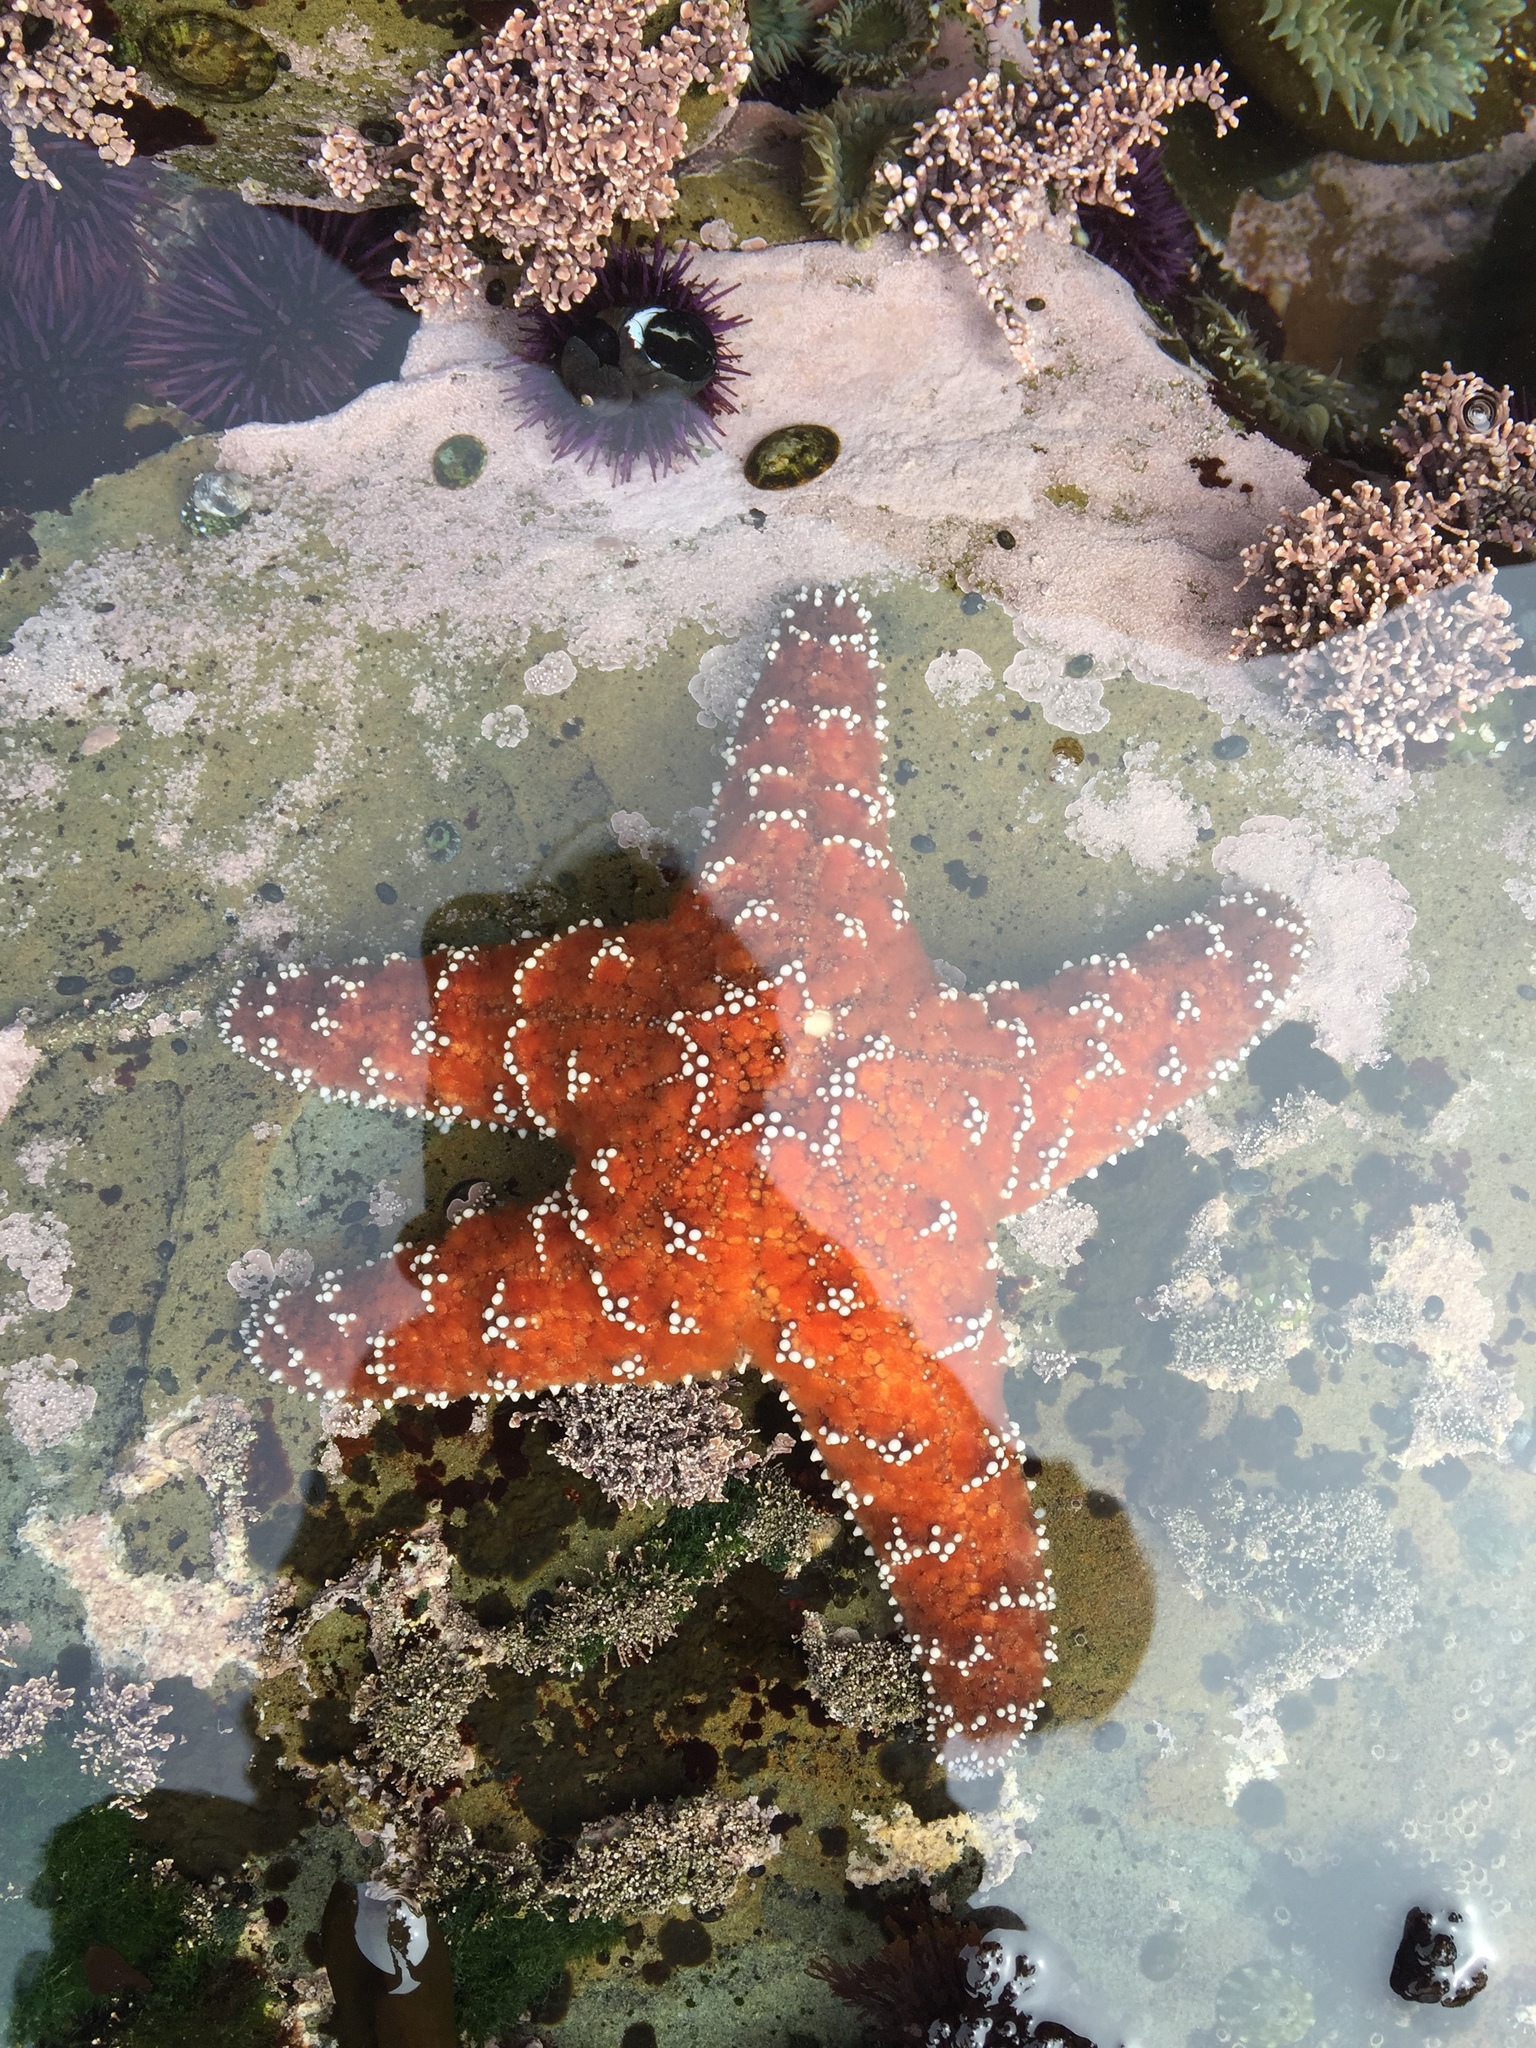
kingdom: Animalia
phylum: Echinodermata
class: Asteroidea
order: Forcipulatida
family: Asteriidae
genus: Pisaster
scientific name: Pisaster ochraceus
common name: Ochre stars
